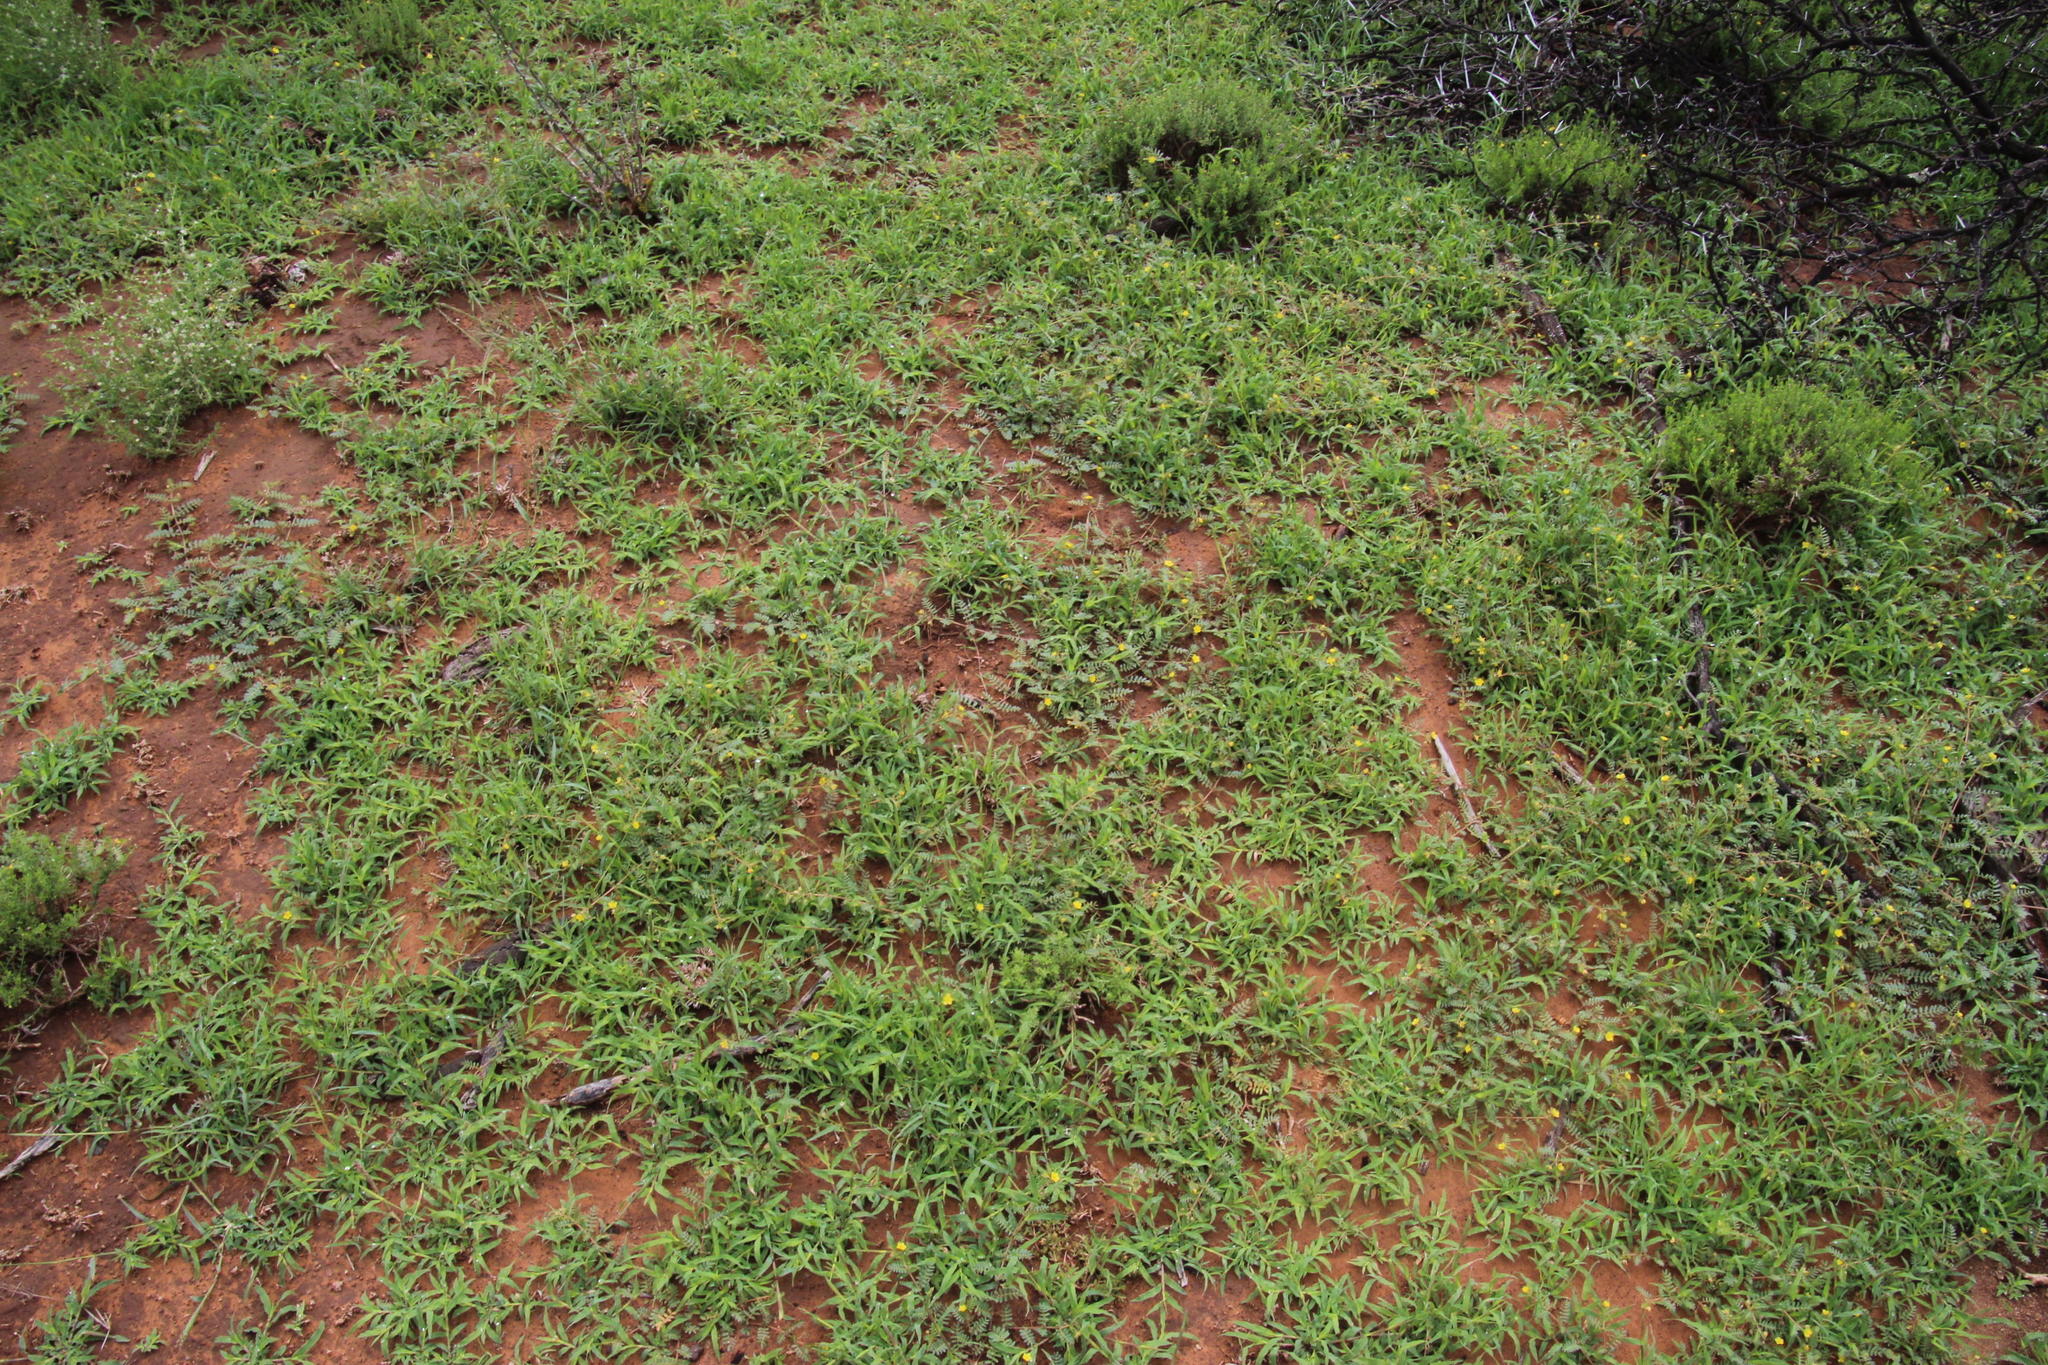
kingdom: Plantae
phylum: Tracheophyta
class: Magnoliopsida
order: Zygophyllales
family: Zygophyllaceae
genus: Tribulus
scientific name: Tribulus terrestris
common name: Puncturevine
